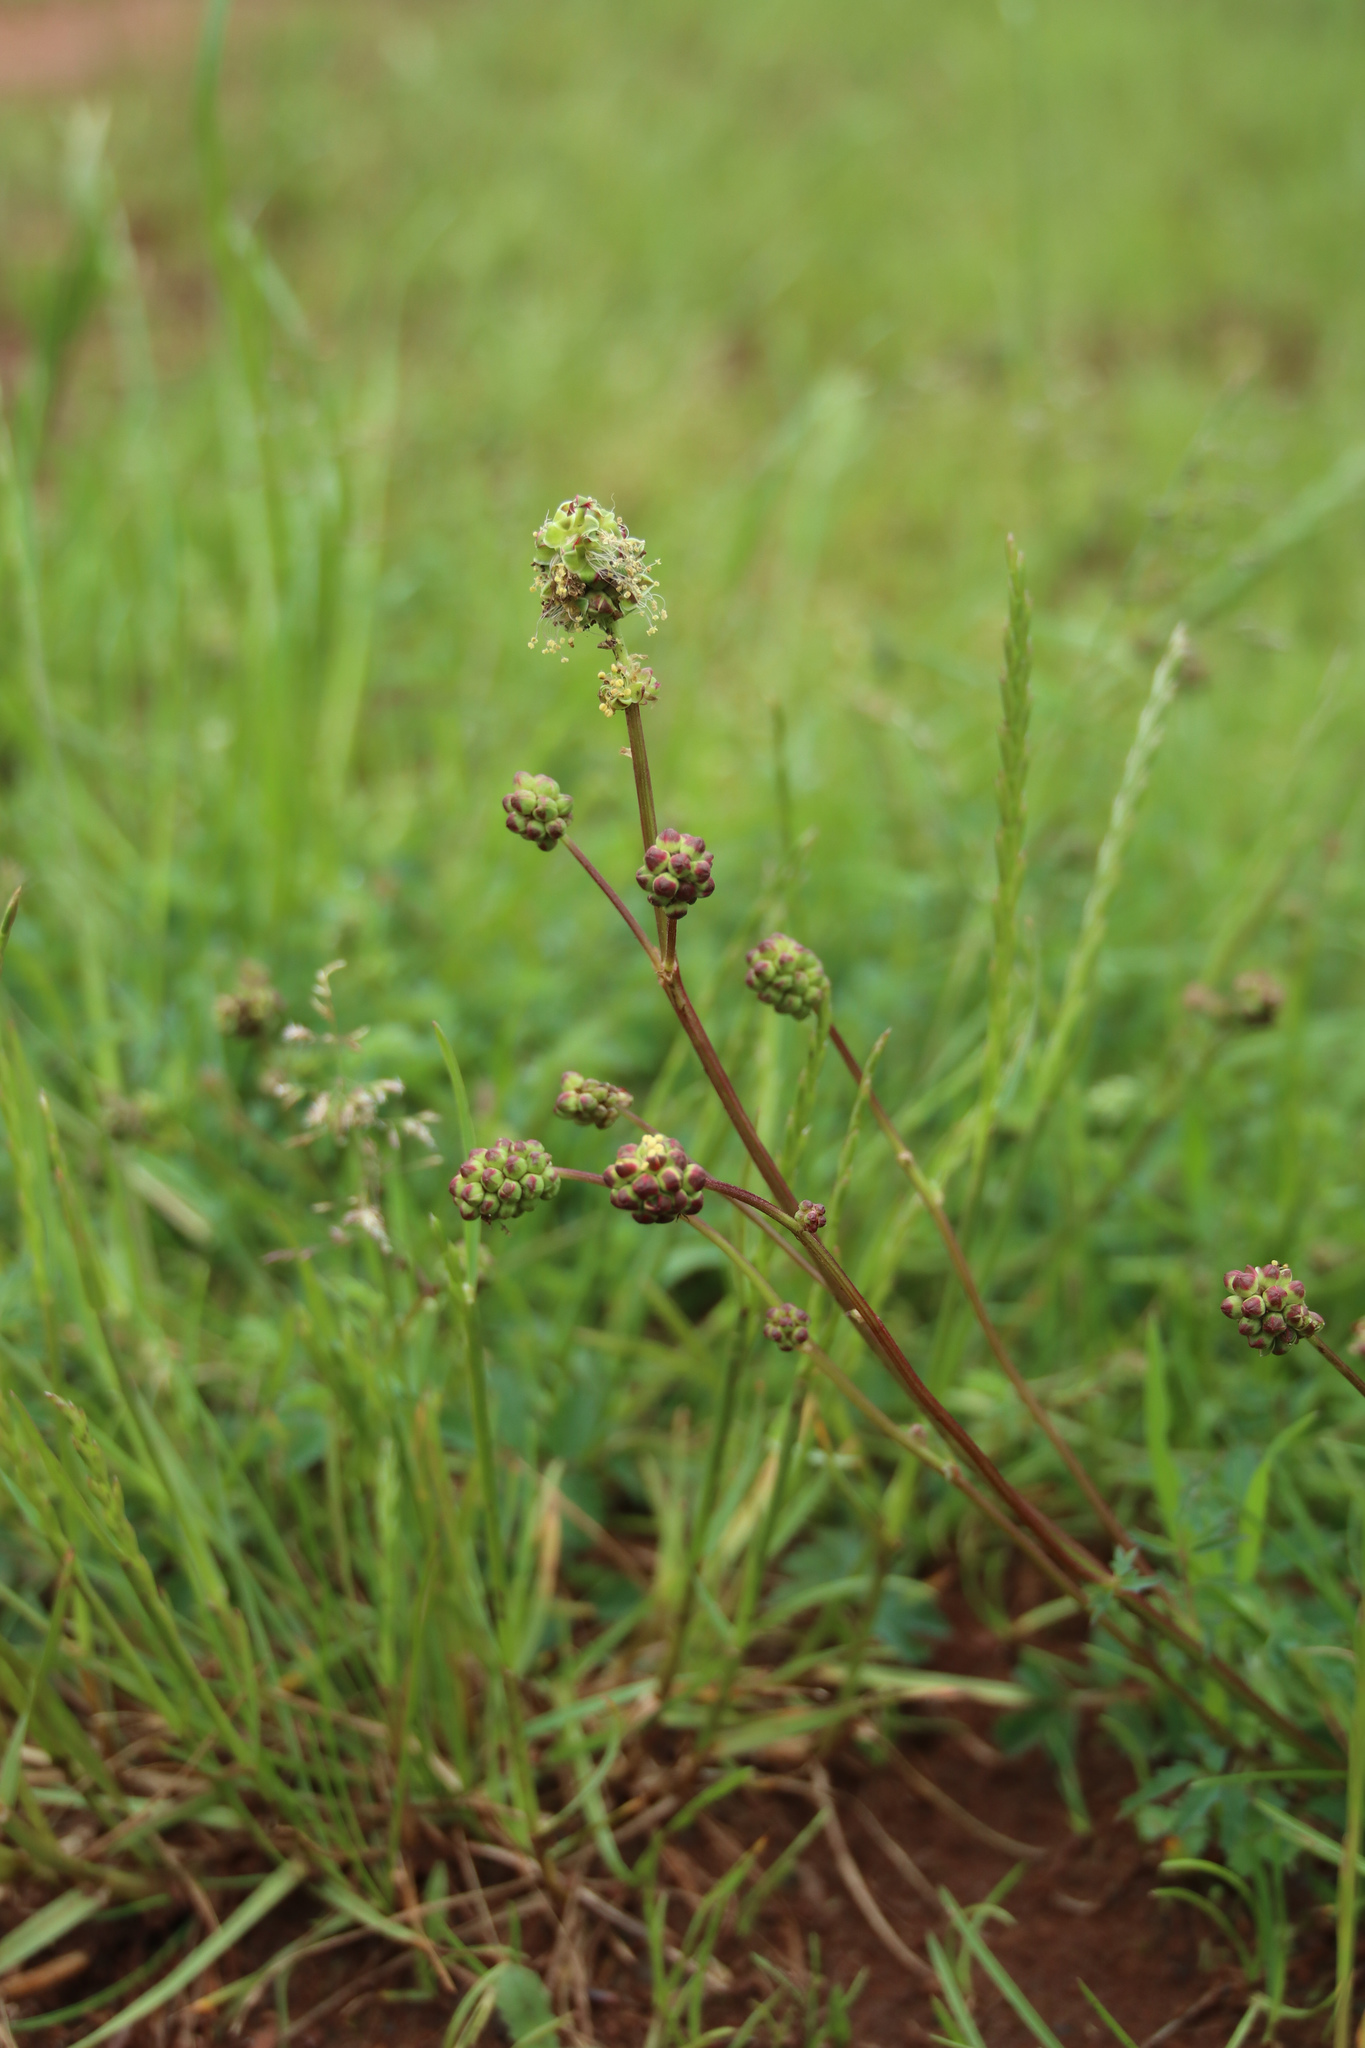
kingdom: Plantae
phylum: Tracheophyta
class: Magnoliopsida
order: Rosales
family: Rosaceae
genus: Poterium
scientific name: Poterium sanguisorba
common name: Salad burnet
